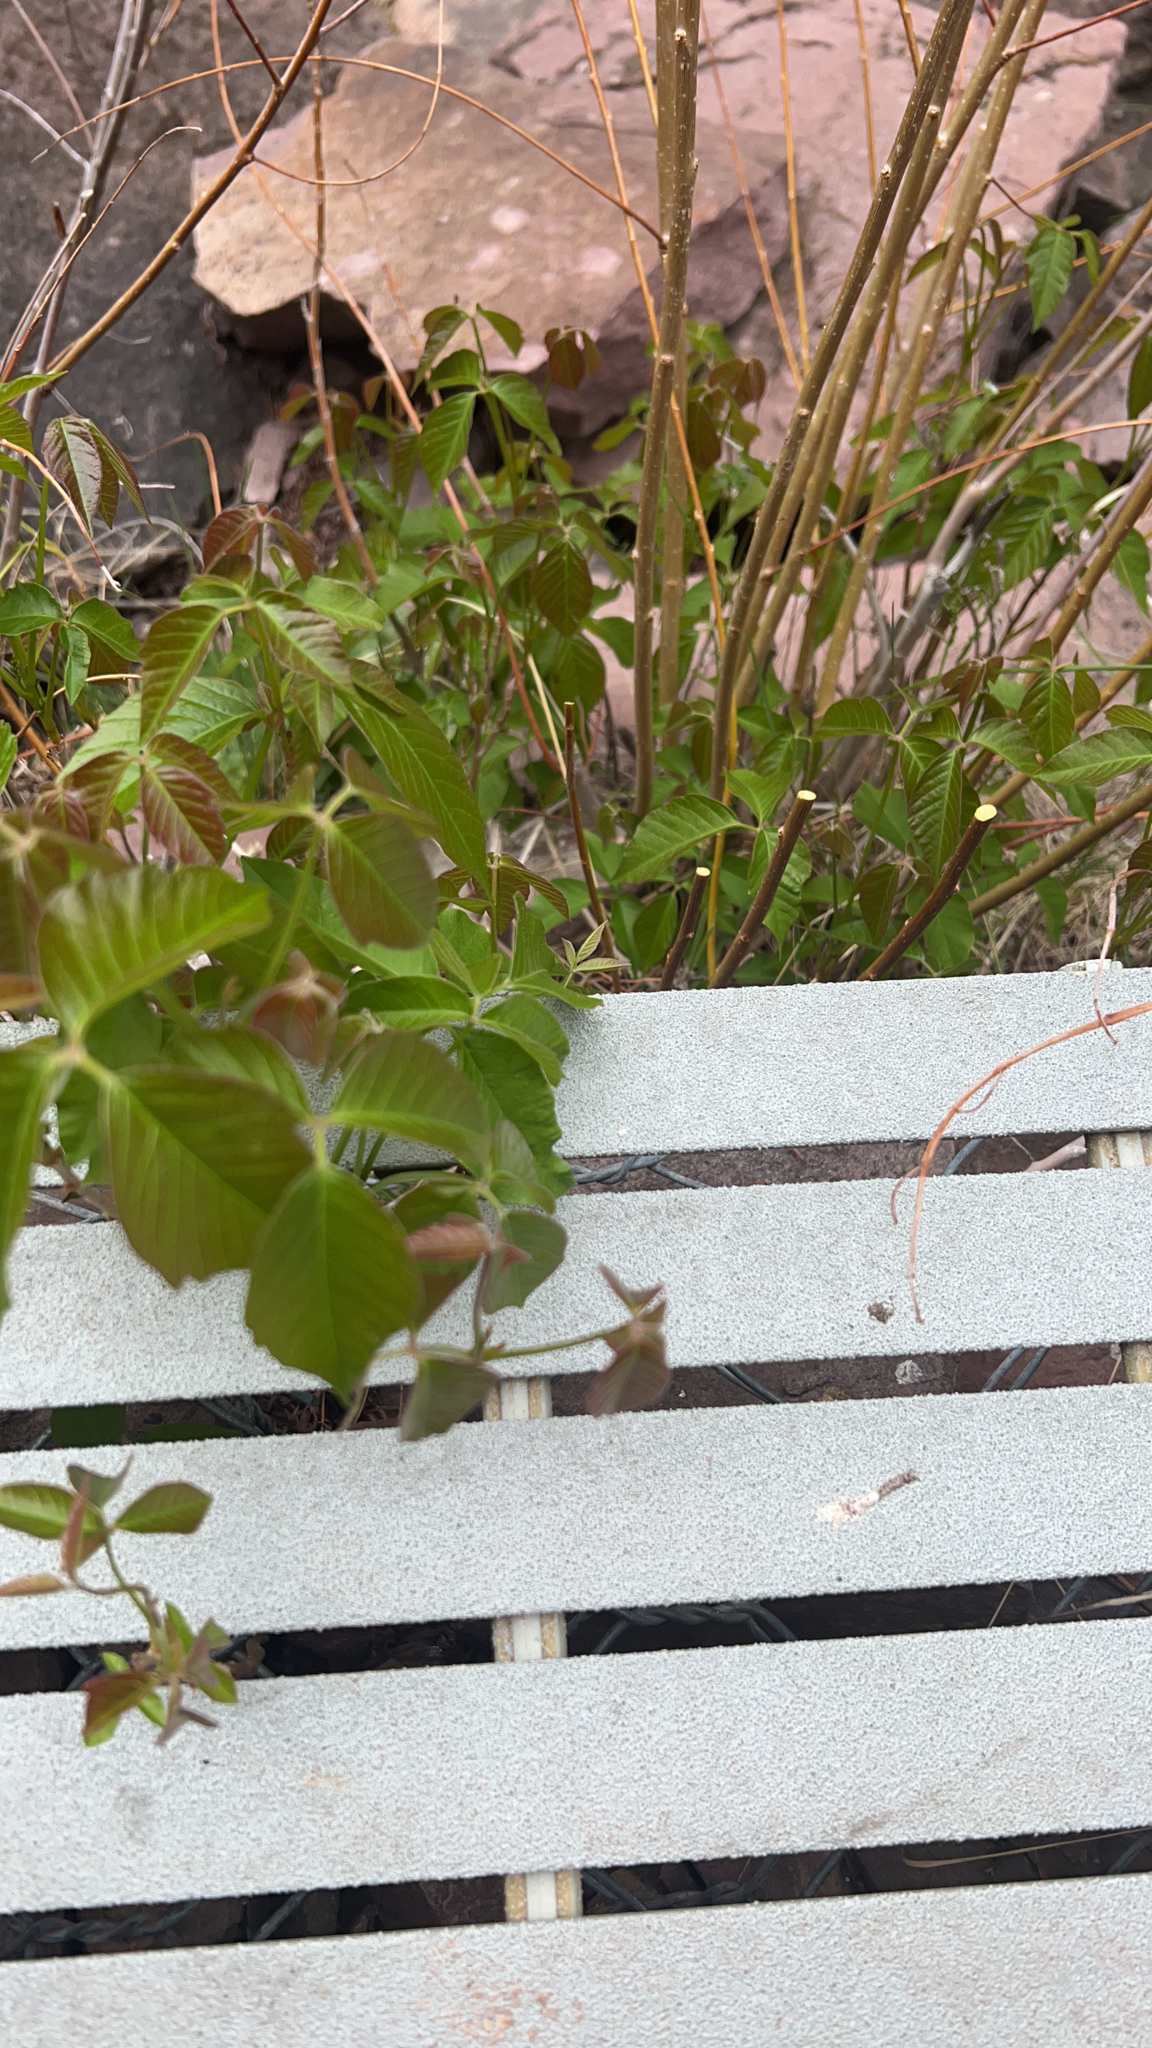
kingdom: Plantae
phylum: Tracheophyta
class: Magnoliopsida
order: Sapindales
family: Anacardiaceae
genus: Toxicodendron
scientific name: Toxicodendron rydbergii
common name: Rydberg's poison-ivy
